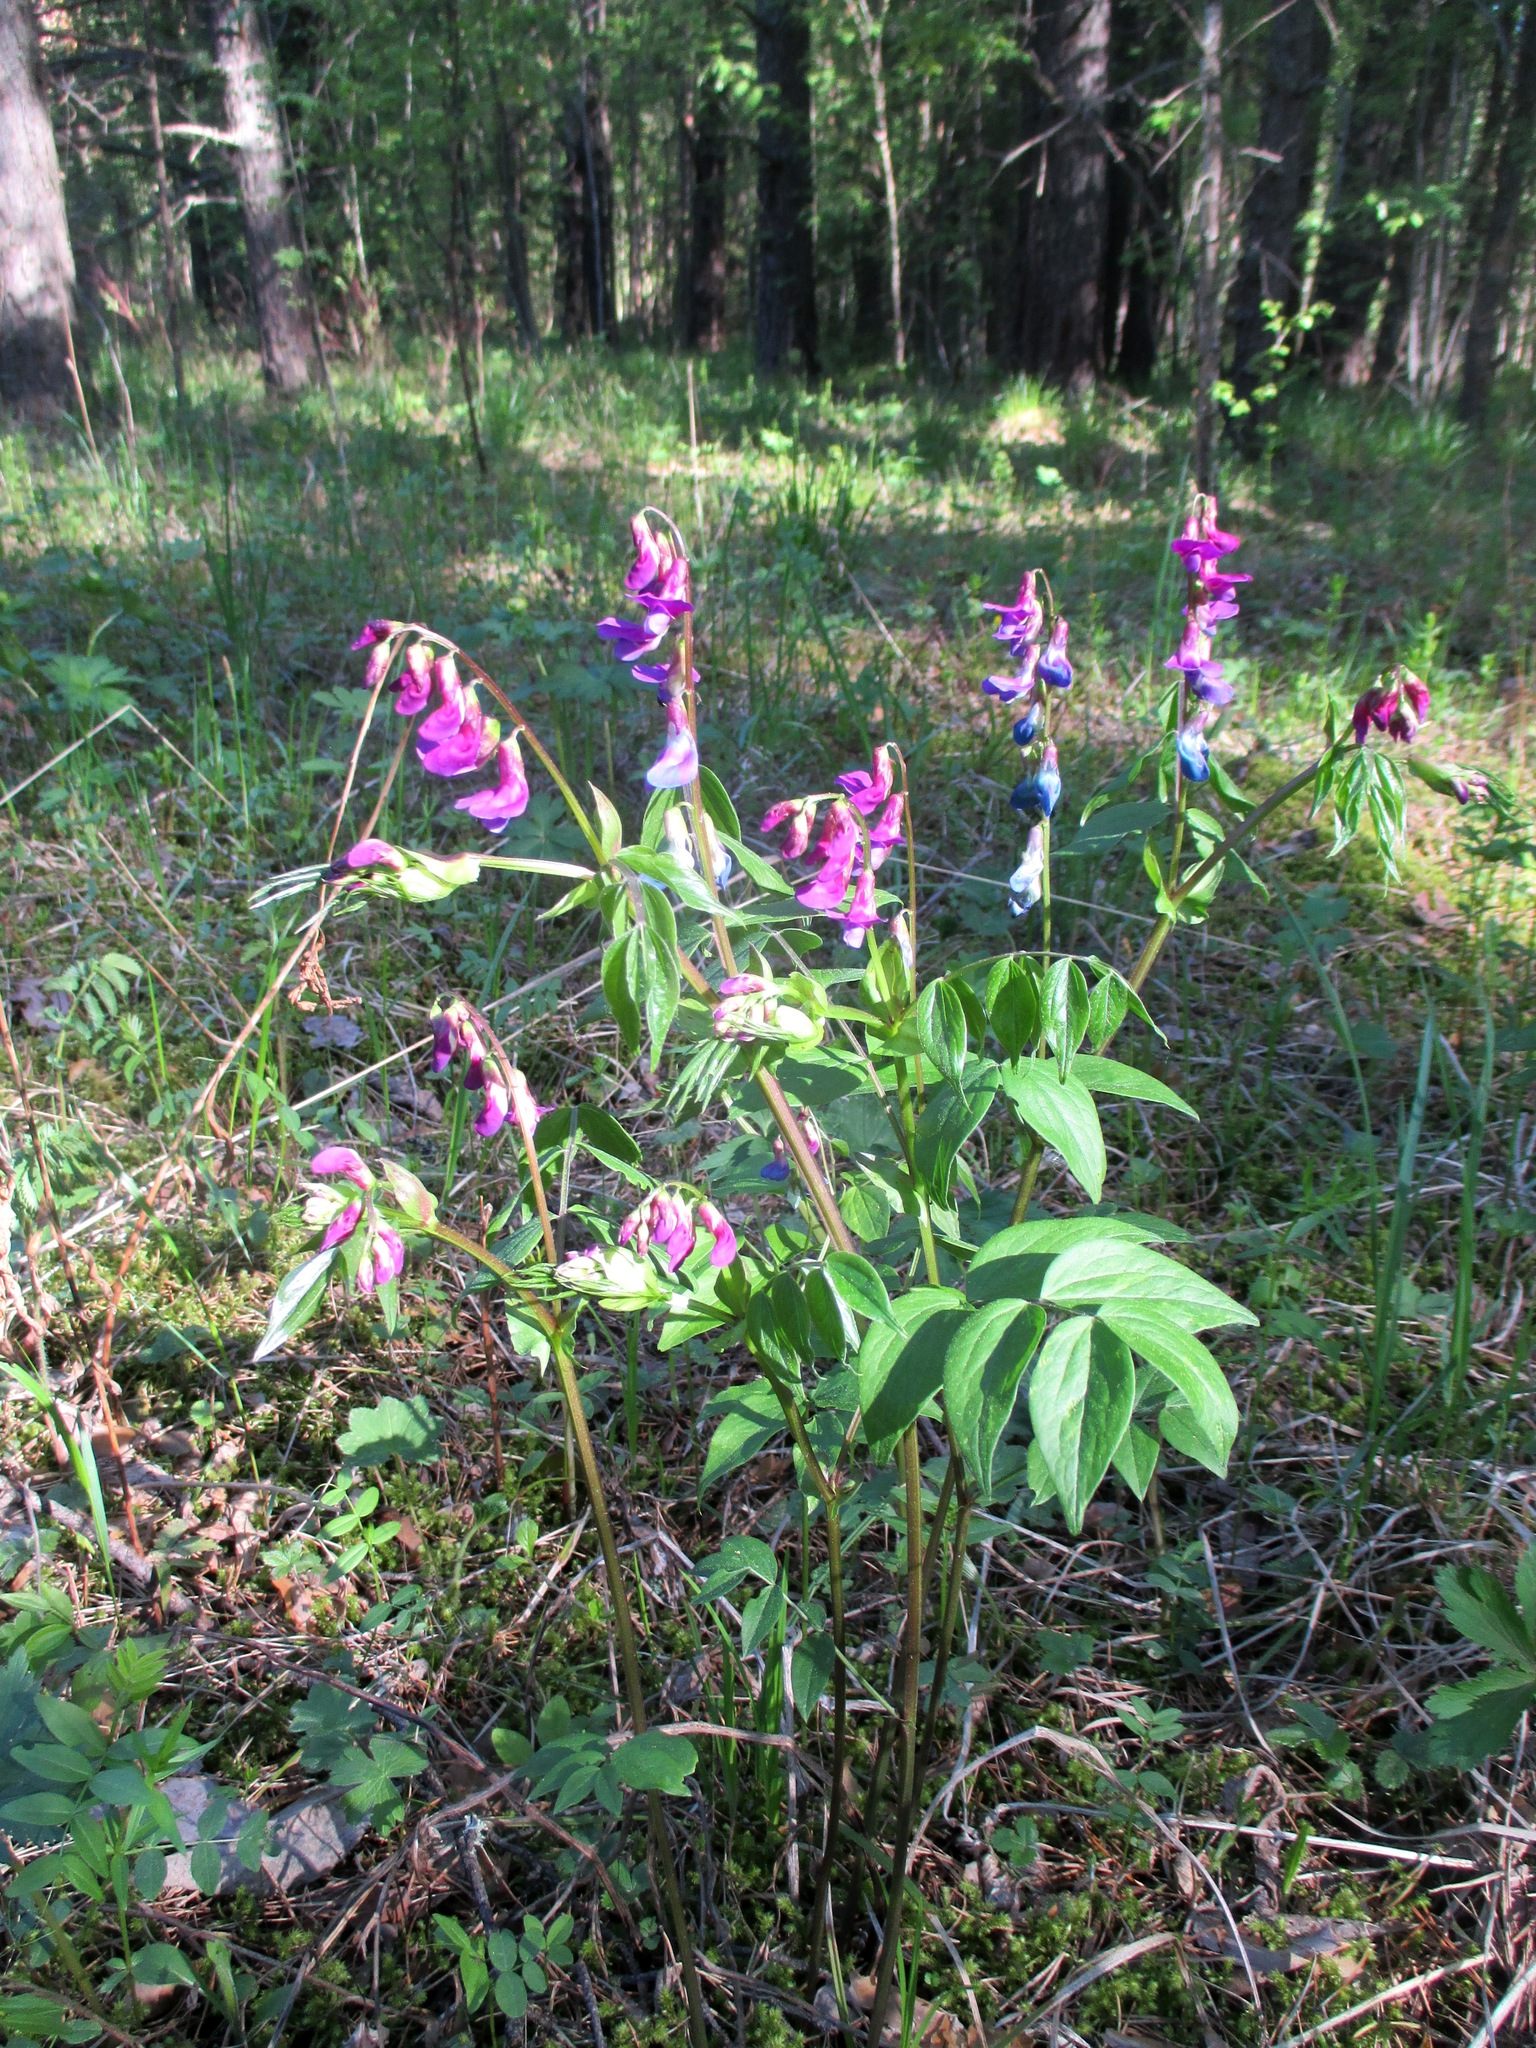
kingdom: Plantae
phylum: Tracheophyta
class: Magnoliopsida
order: Fabales
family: Fabaceae
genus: Lathyrus
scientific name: Lathyrus vernus
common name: Spring pea
